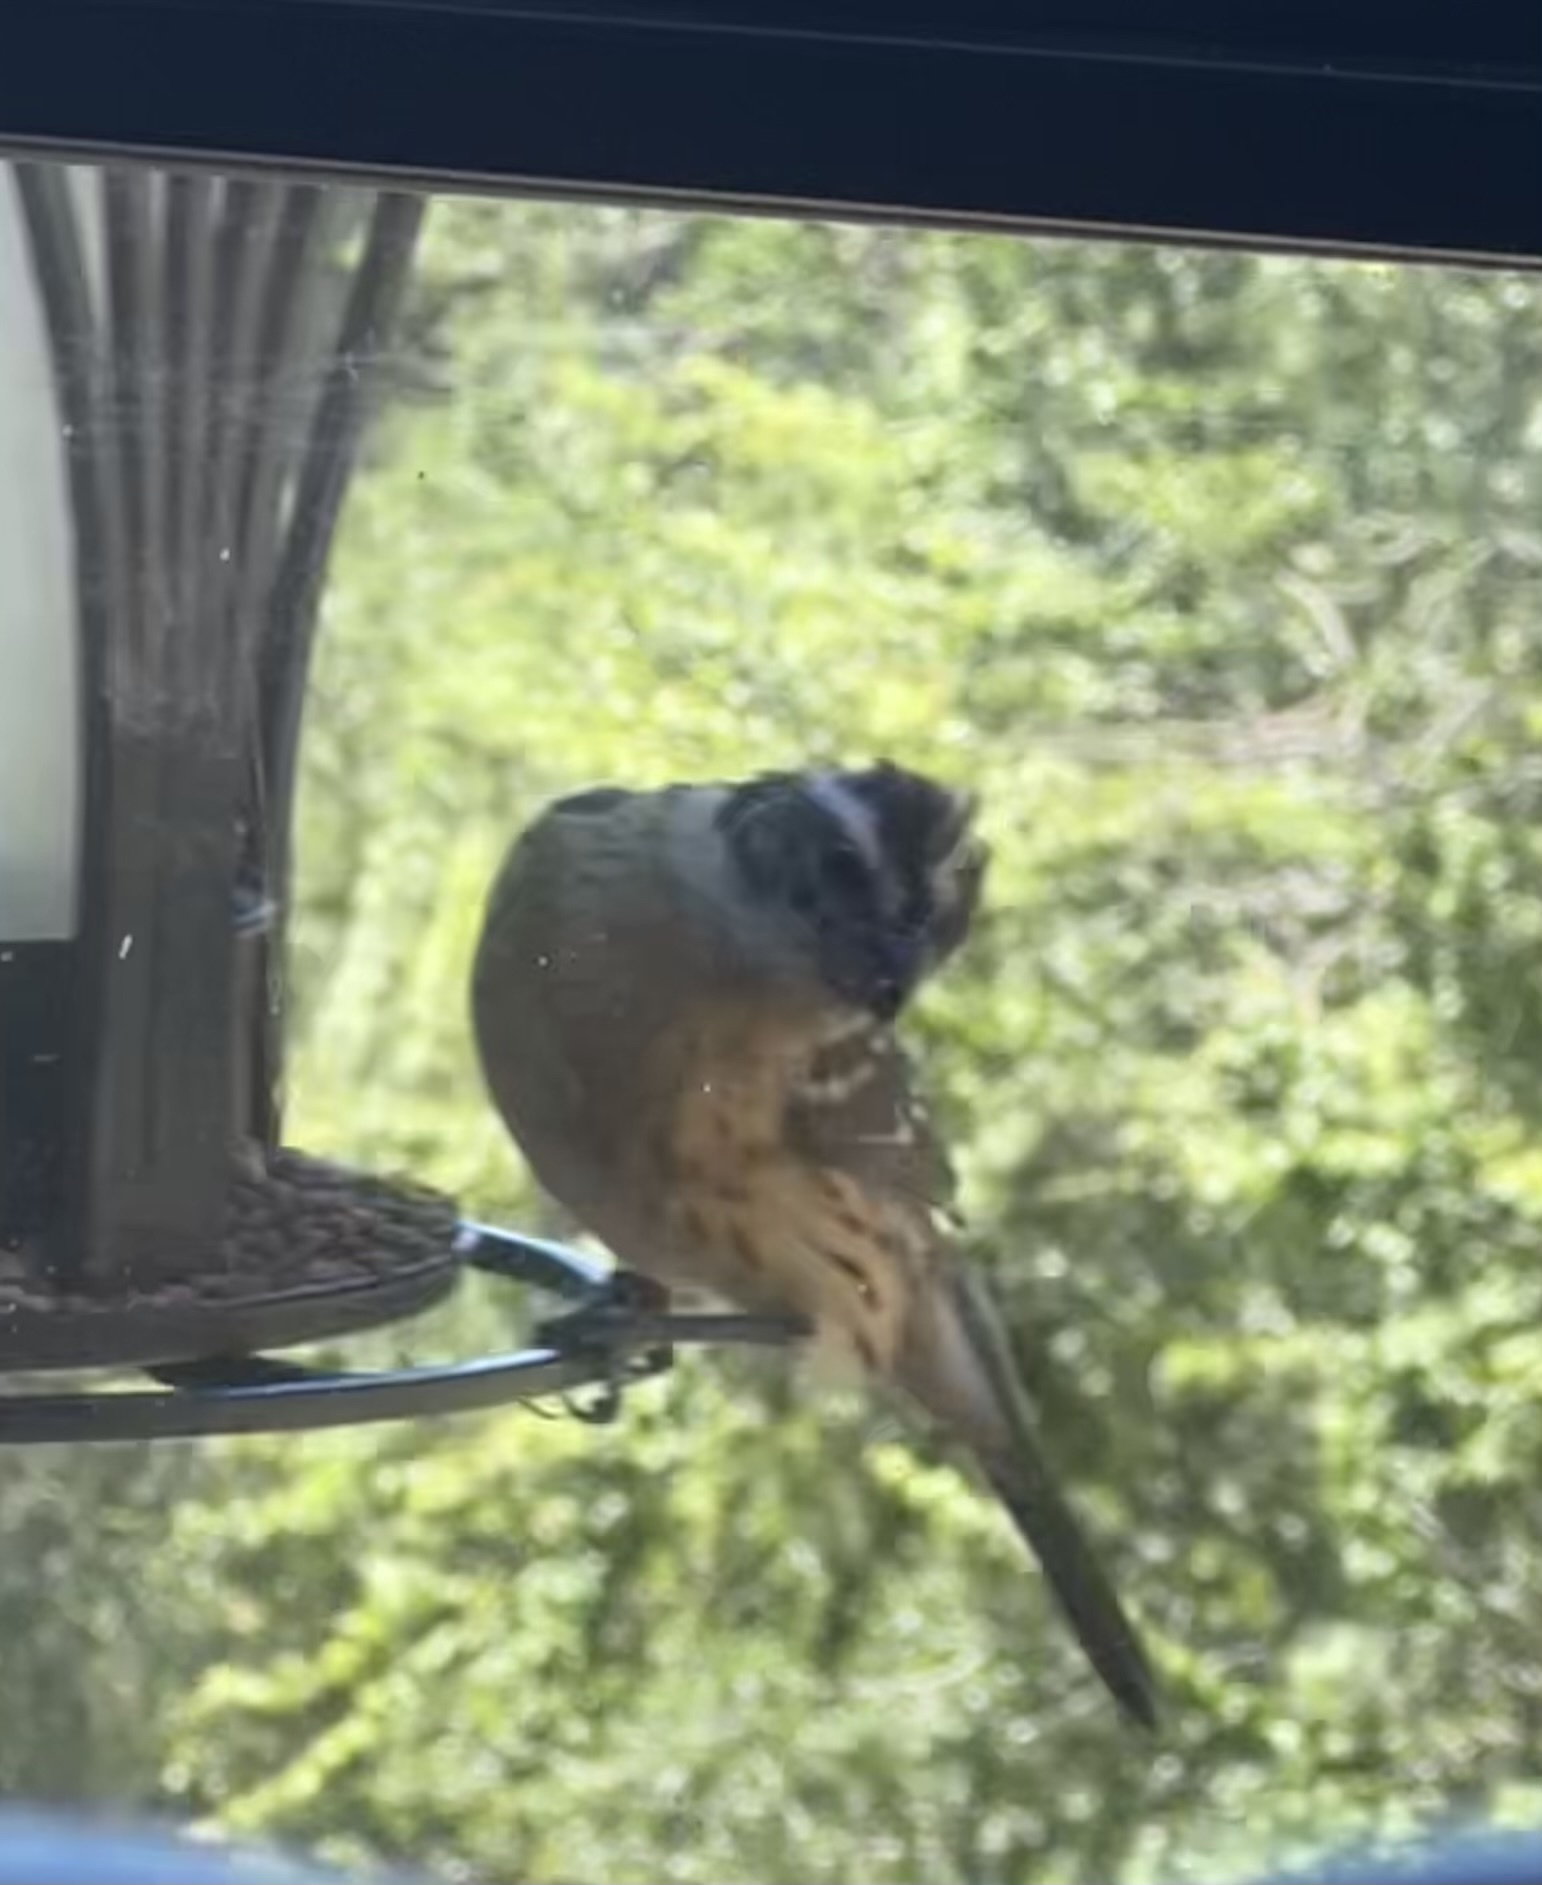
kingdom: Animalia
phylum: Chordata
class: Aves
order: Passeriformes
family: Cardinalidae
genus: Pheucticus
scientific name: Pheucticus melanocephalus
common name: Black-headed grosbeak
